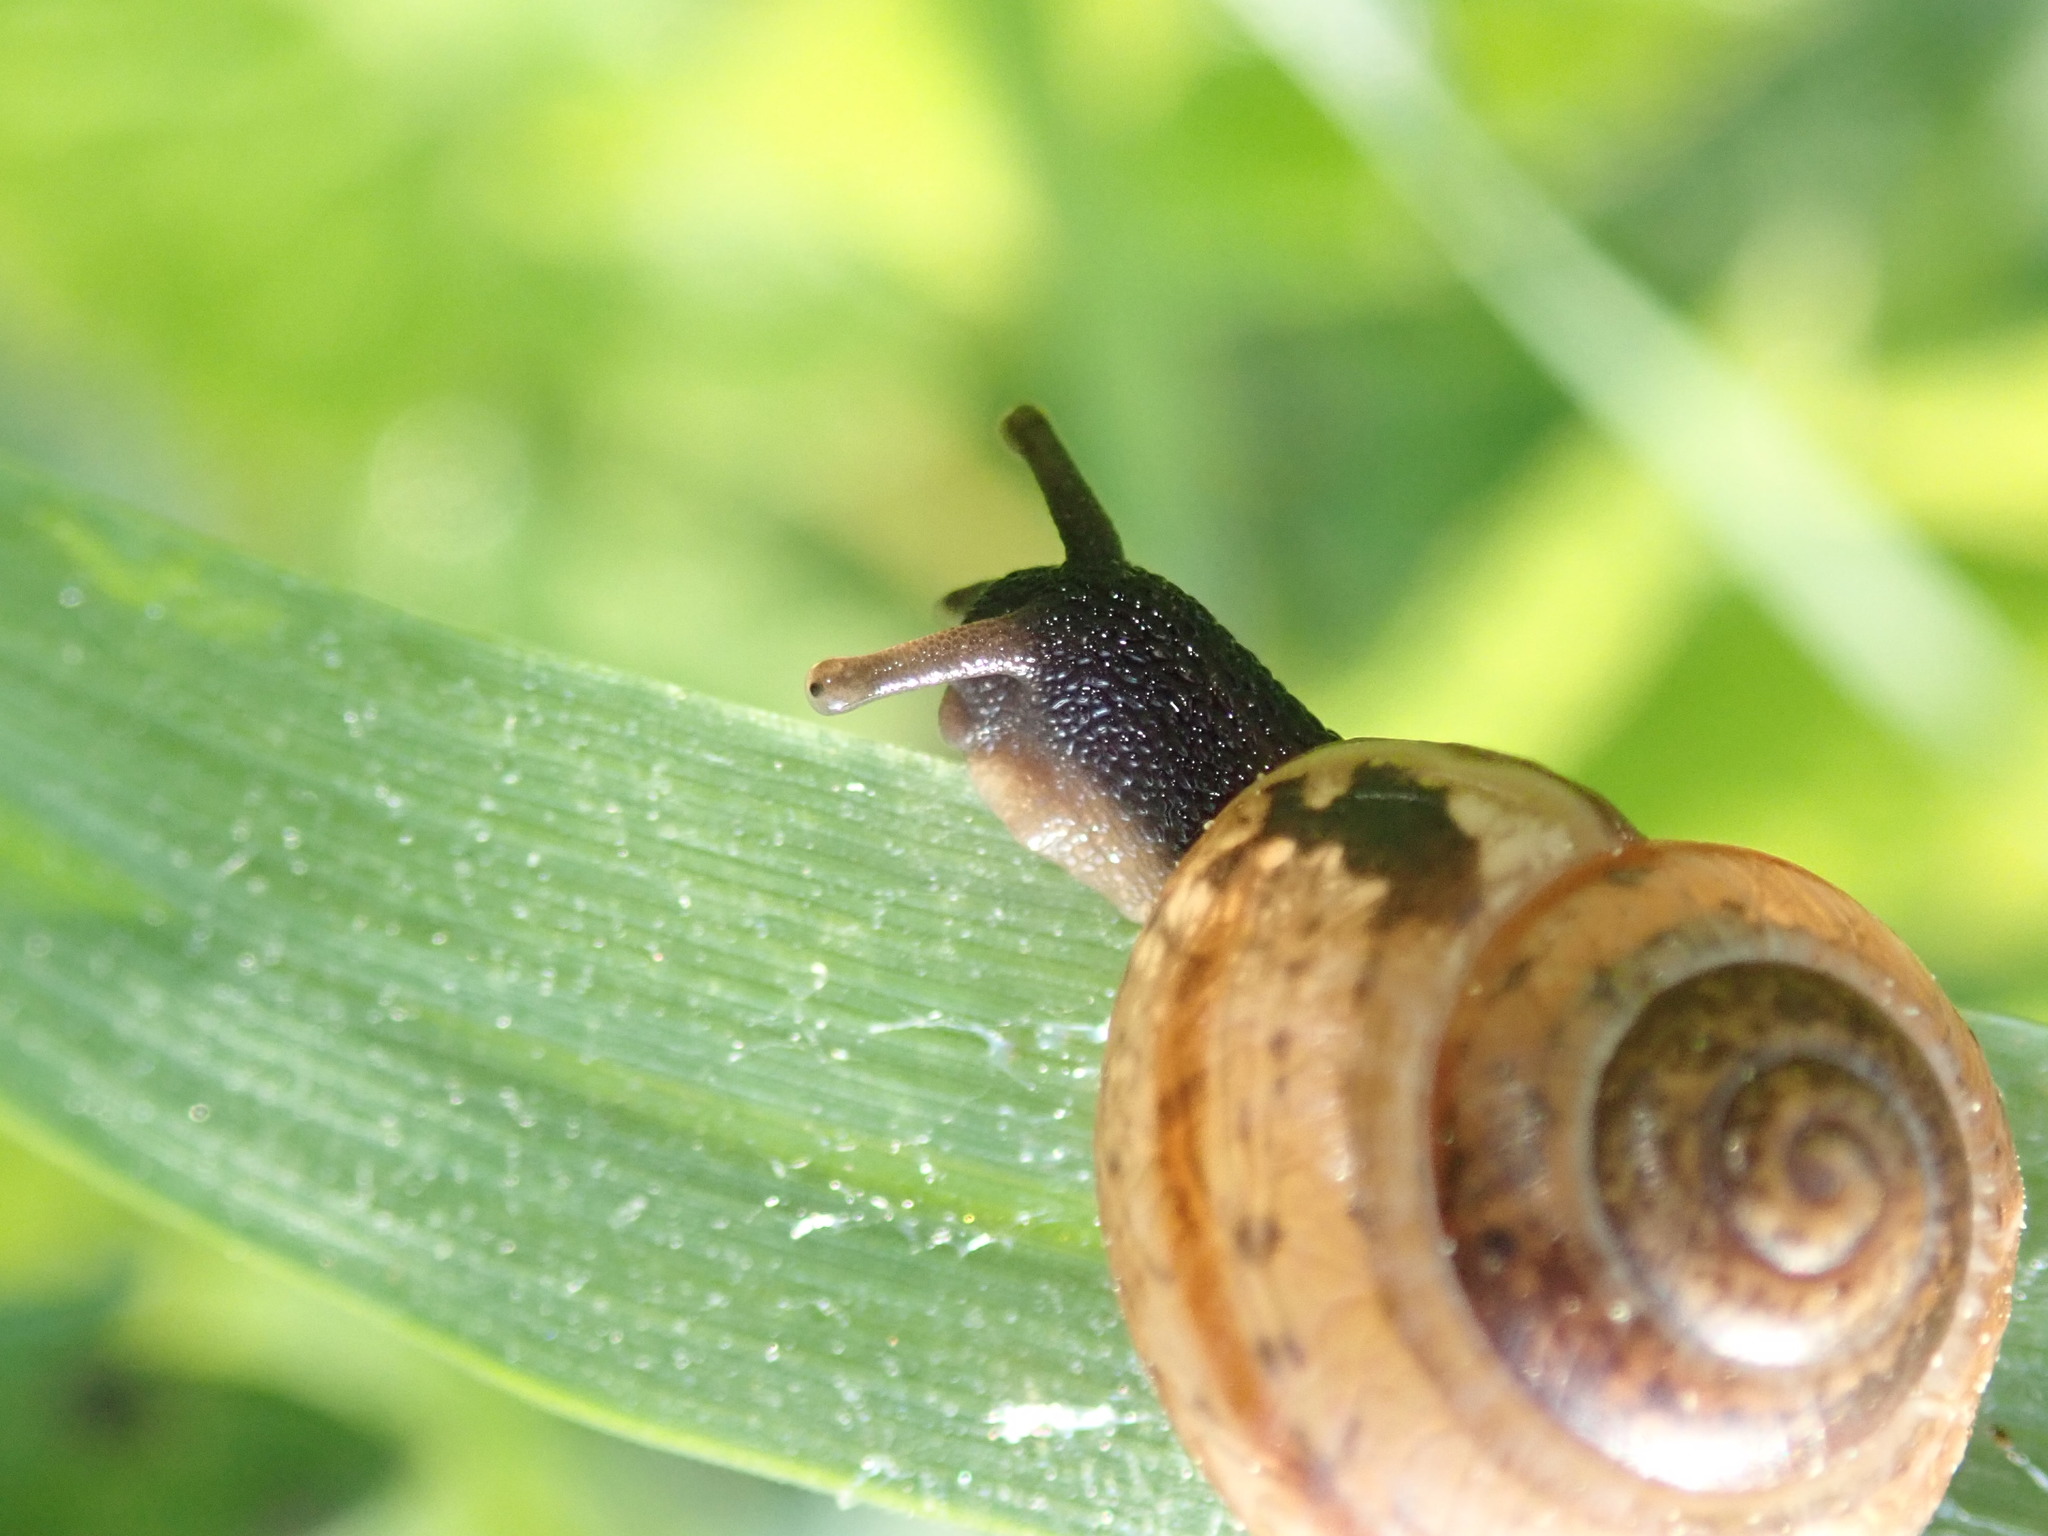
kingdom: Animalia
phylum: Mollusca
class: Gastropoda
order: Stylommatophora
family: Helicidae
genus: Arianta
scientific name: Arianta arbustorum
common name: Copse snail
